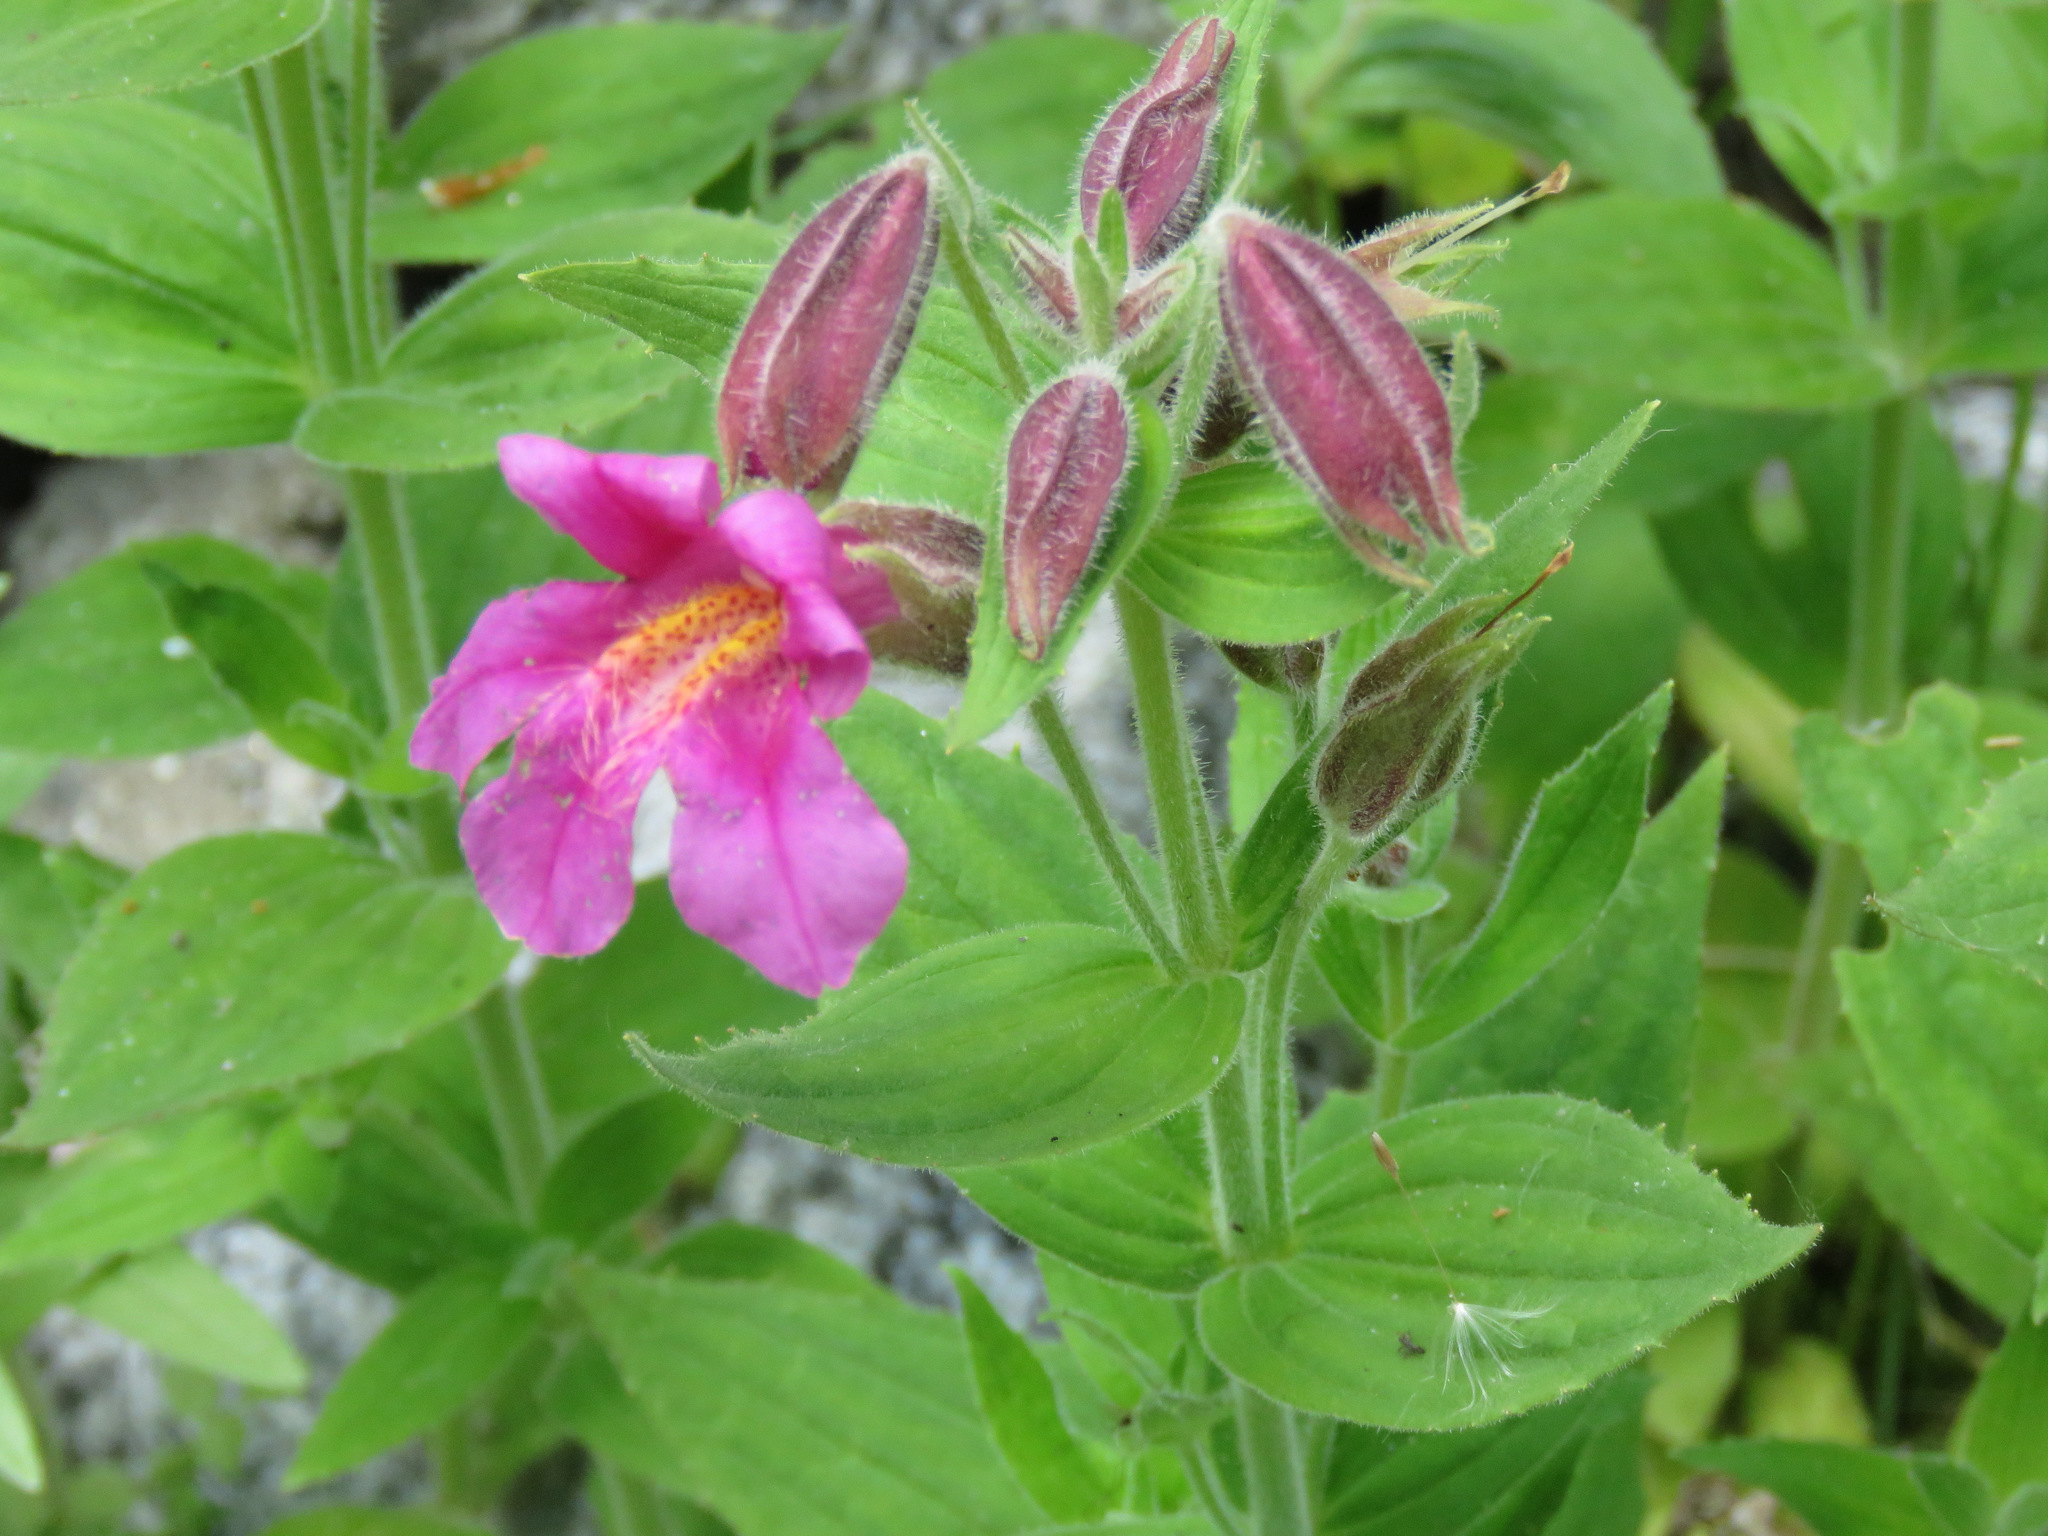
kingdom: Plantae
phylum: Tracheophyta
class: Magnoliopsida
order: Lamiales
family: Phrymaceae
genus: Erythranthe
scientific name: Erythranthe lewisii
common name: Lewis's monkey-flower
